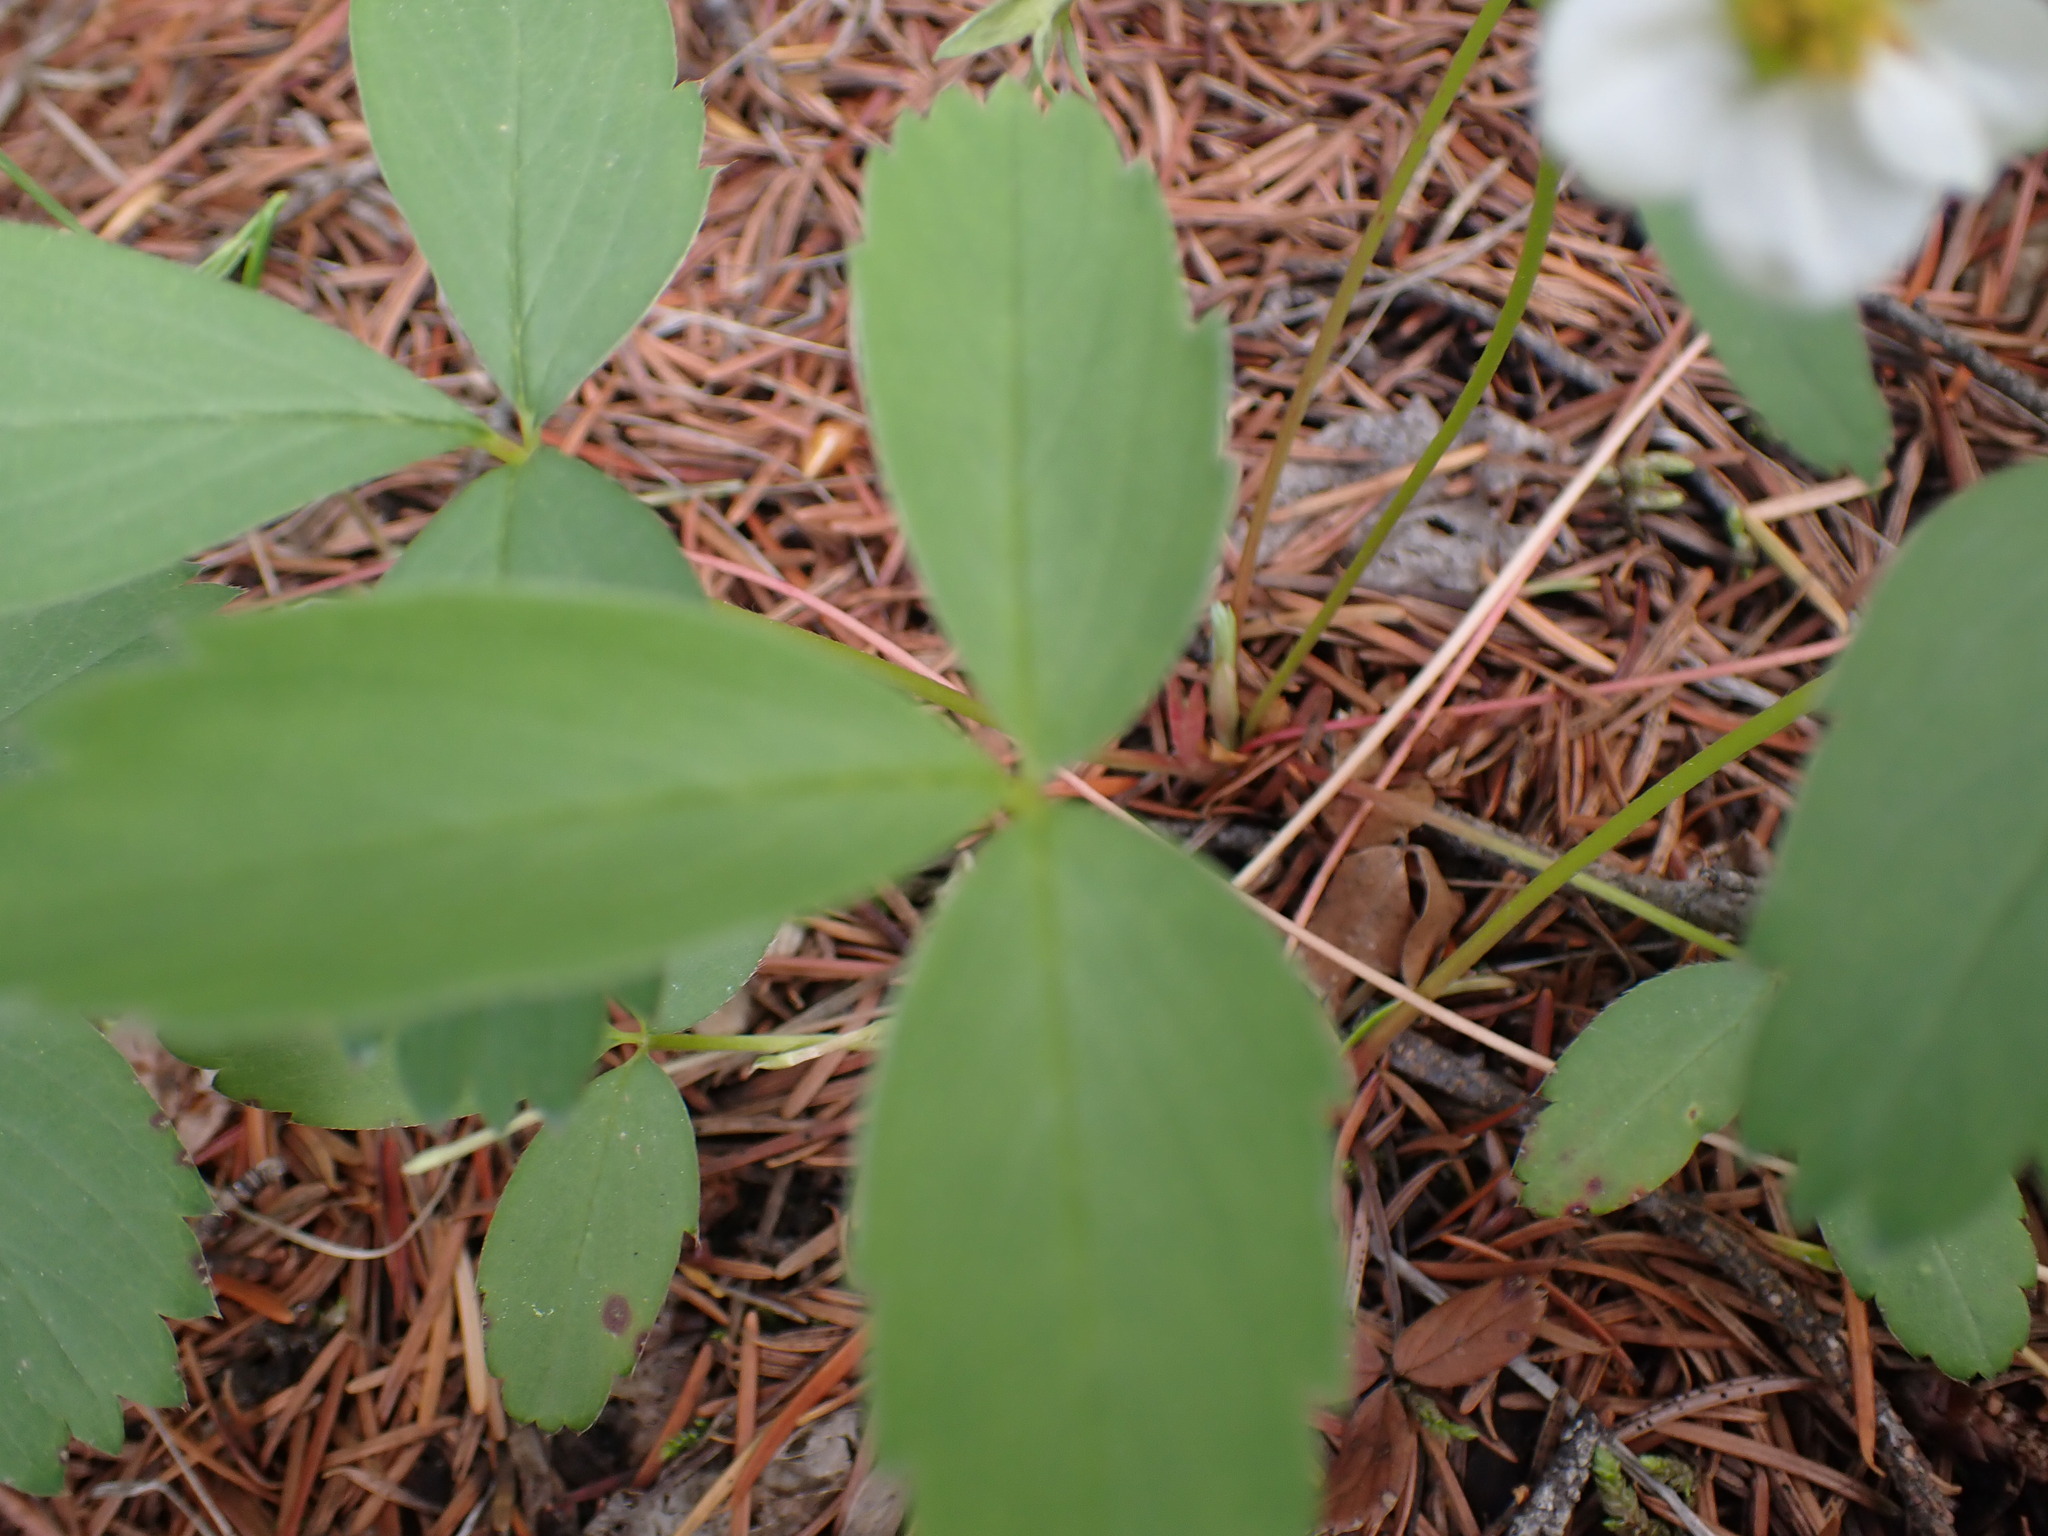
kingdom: Plantae
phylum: Tracheophyta
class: Magnoliopsida
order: Rosales
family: Rosaceae
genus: Fragaria
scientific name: Fragaria virginiana
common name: Thickleaved wild strawberry
